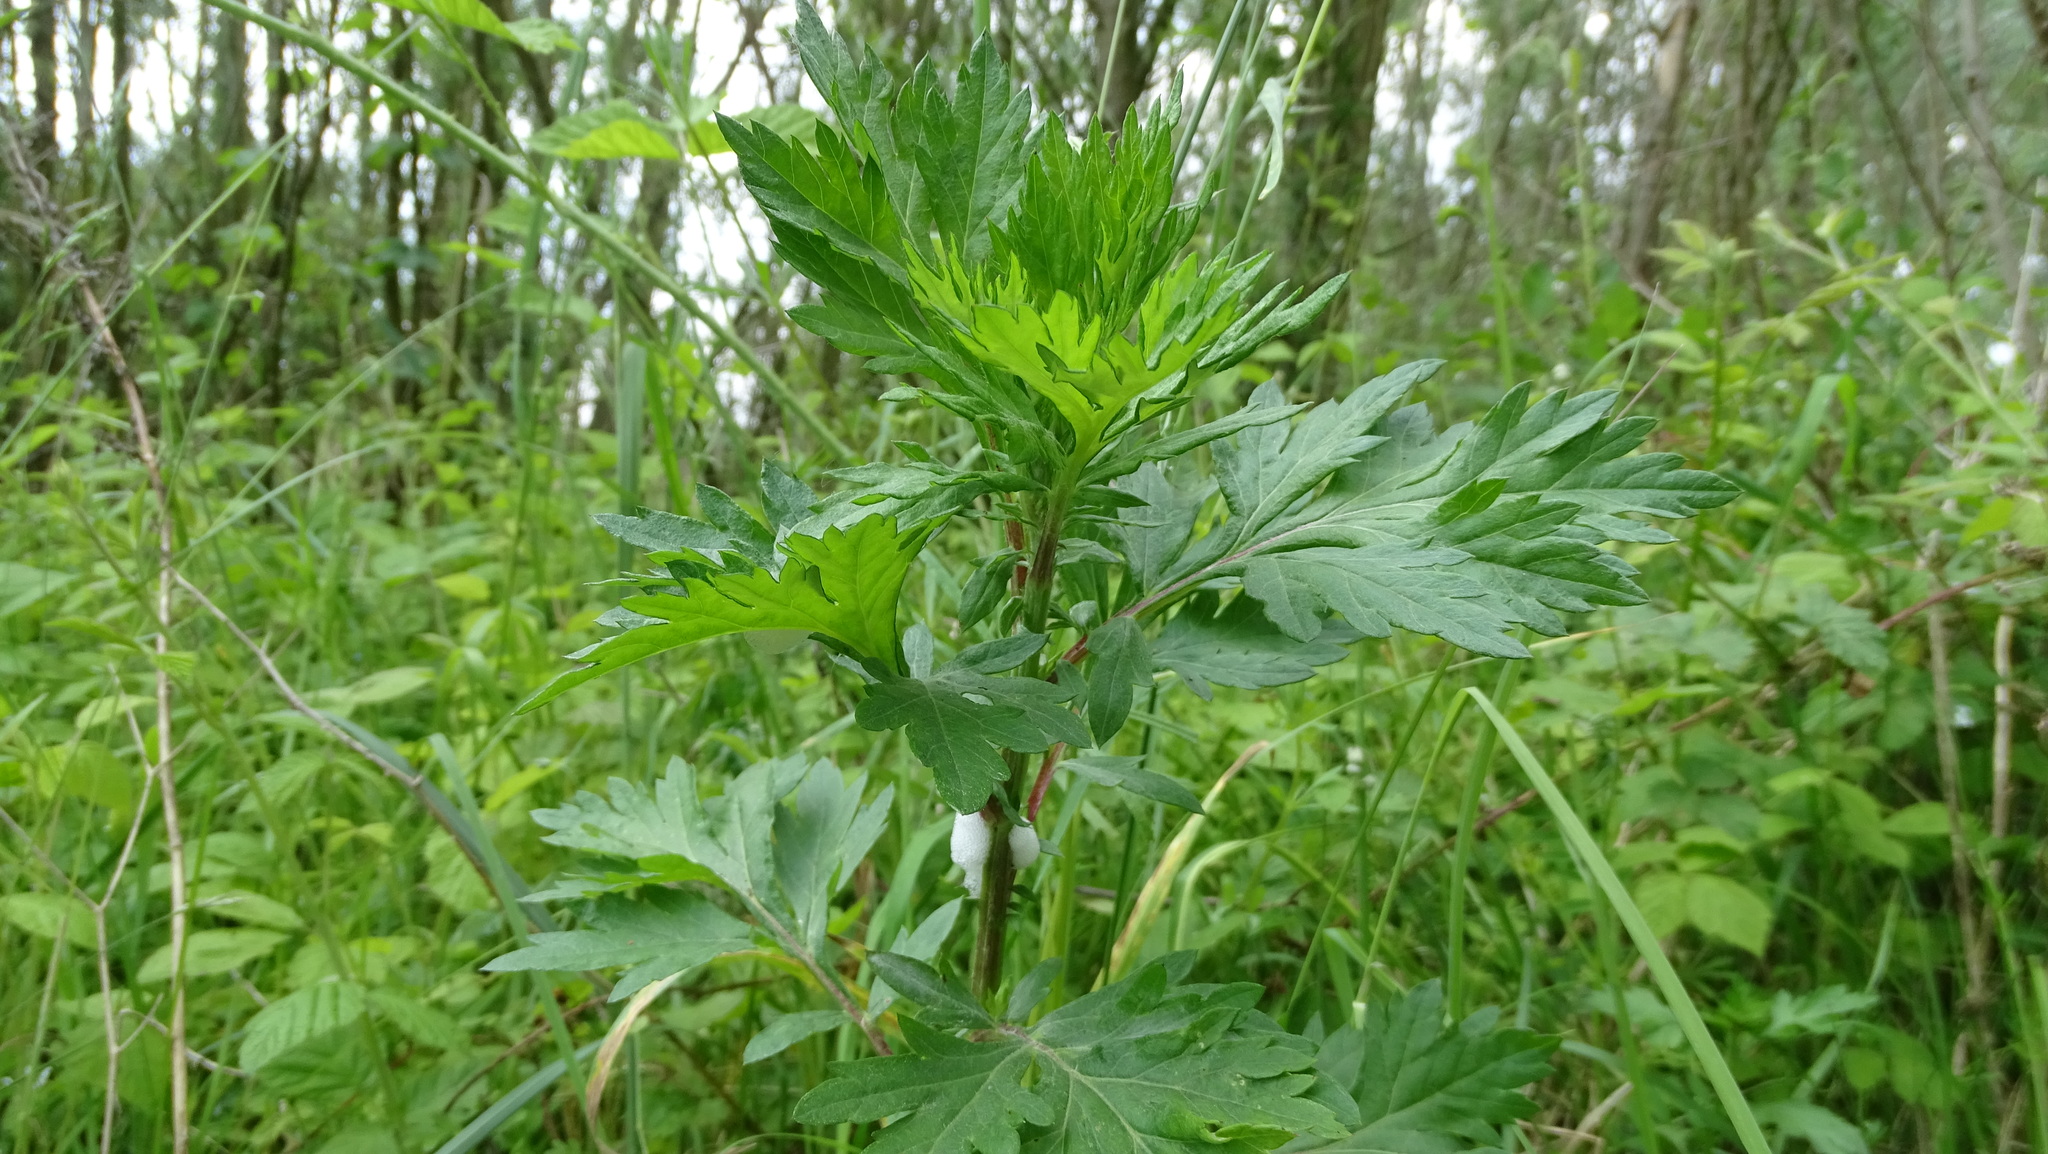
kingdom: Plantae
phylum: Tracheophyta
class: Magnoliopsida
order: Asterales
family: Asteraceae
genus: Artemisia
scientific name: Artemisia vulgaris
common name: Mugwort
